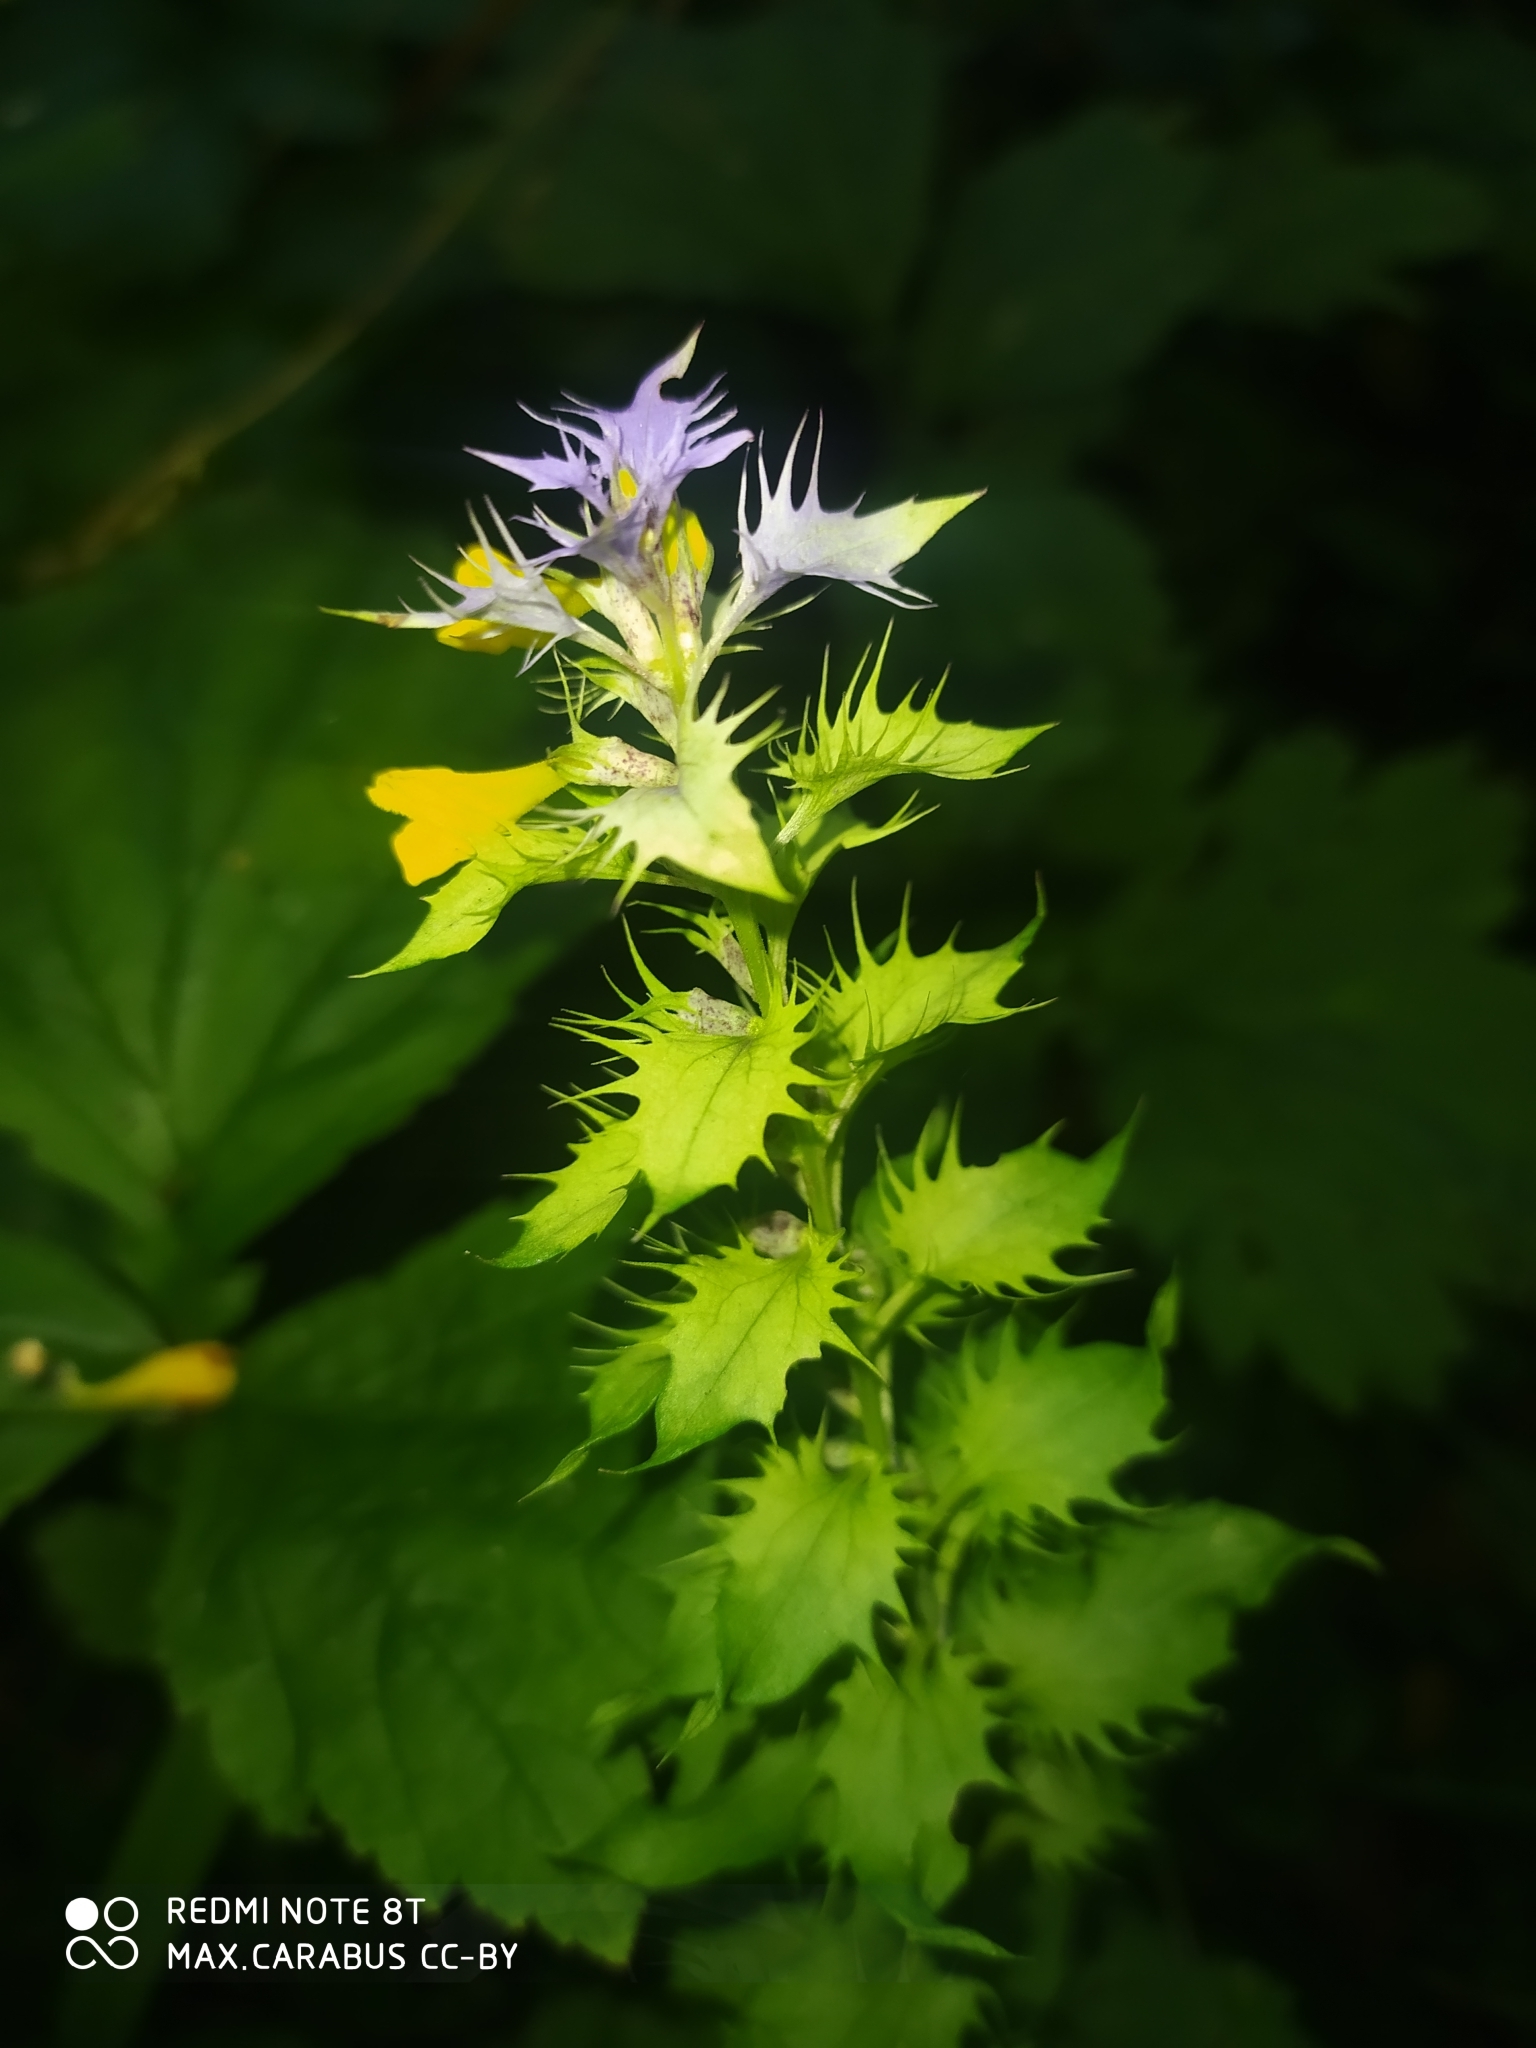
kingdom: Plantae
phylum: Tracheophyta
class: Magnoliopsida
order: Lamiales
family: Orobanchaceae
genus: Melampyrum
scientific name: Melampyrum nemorosum
